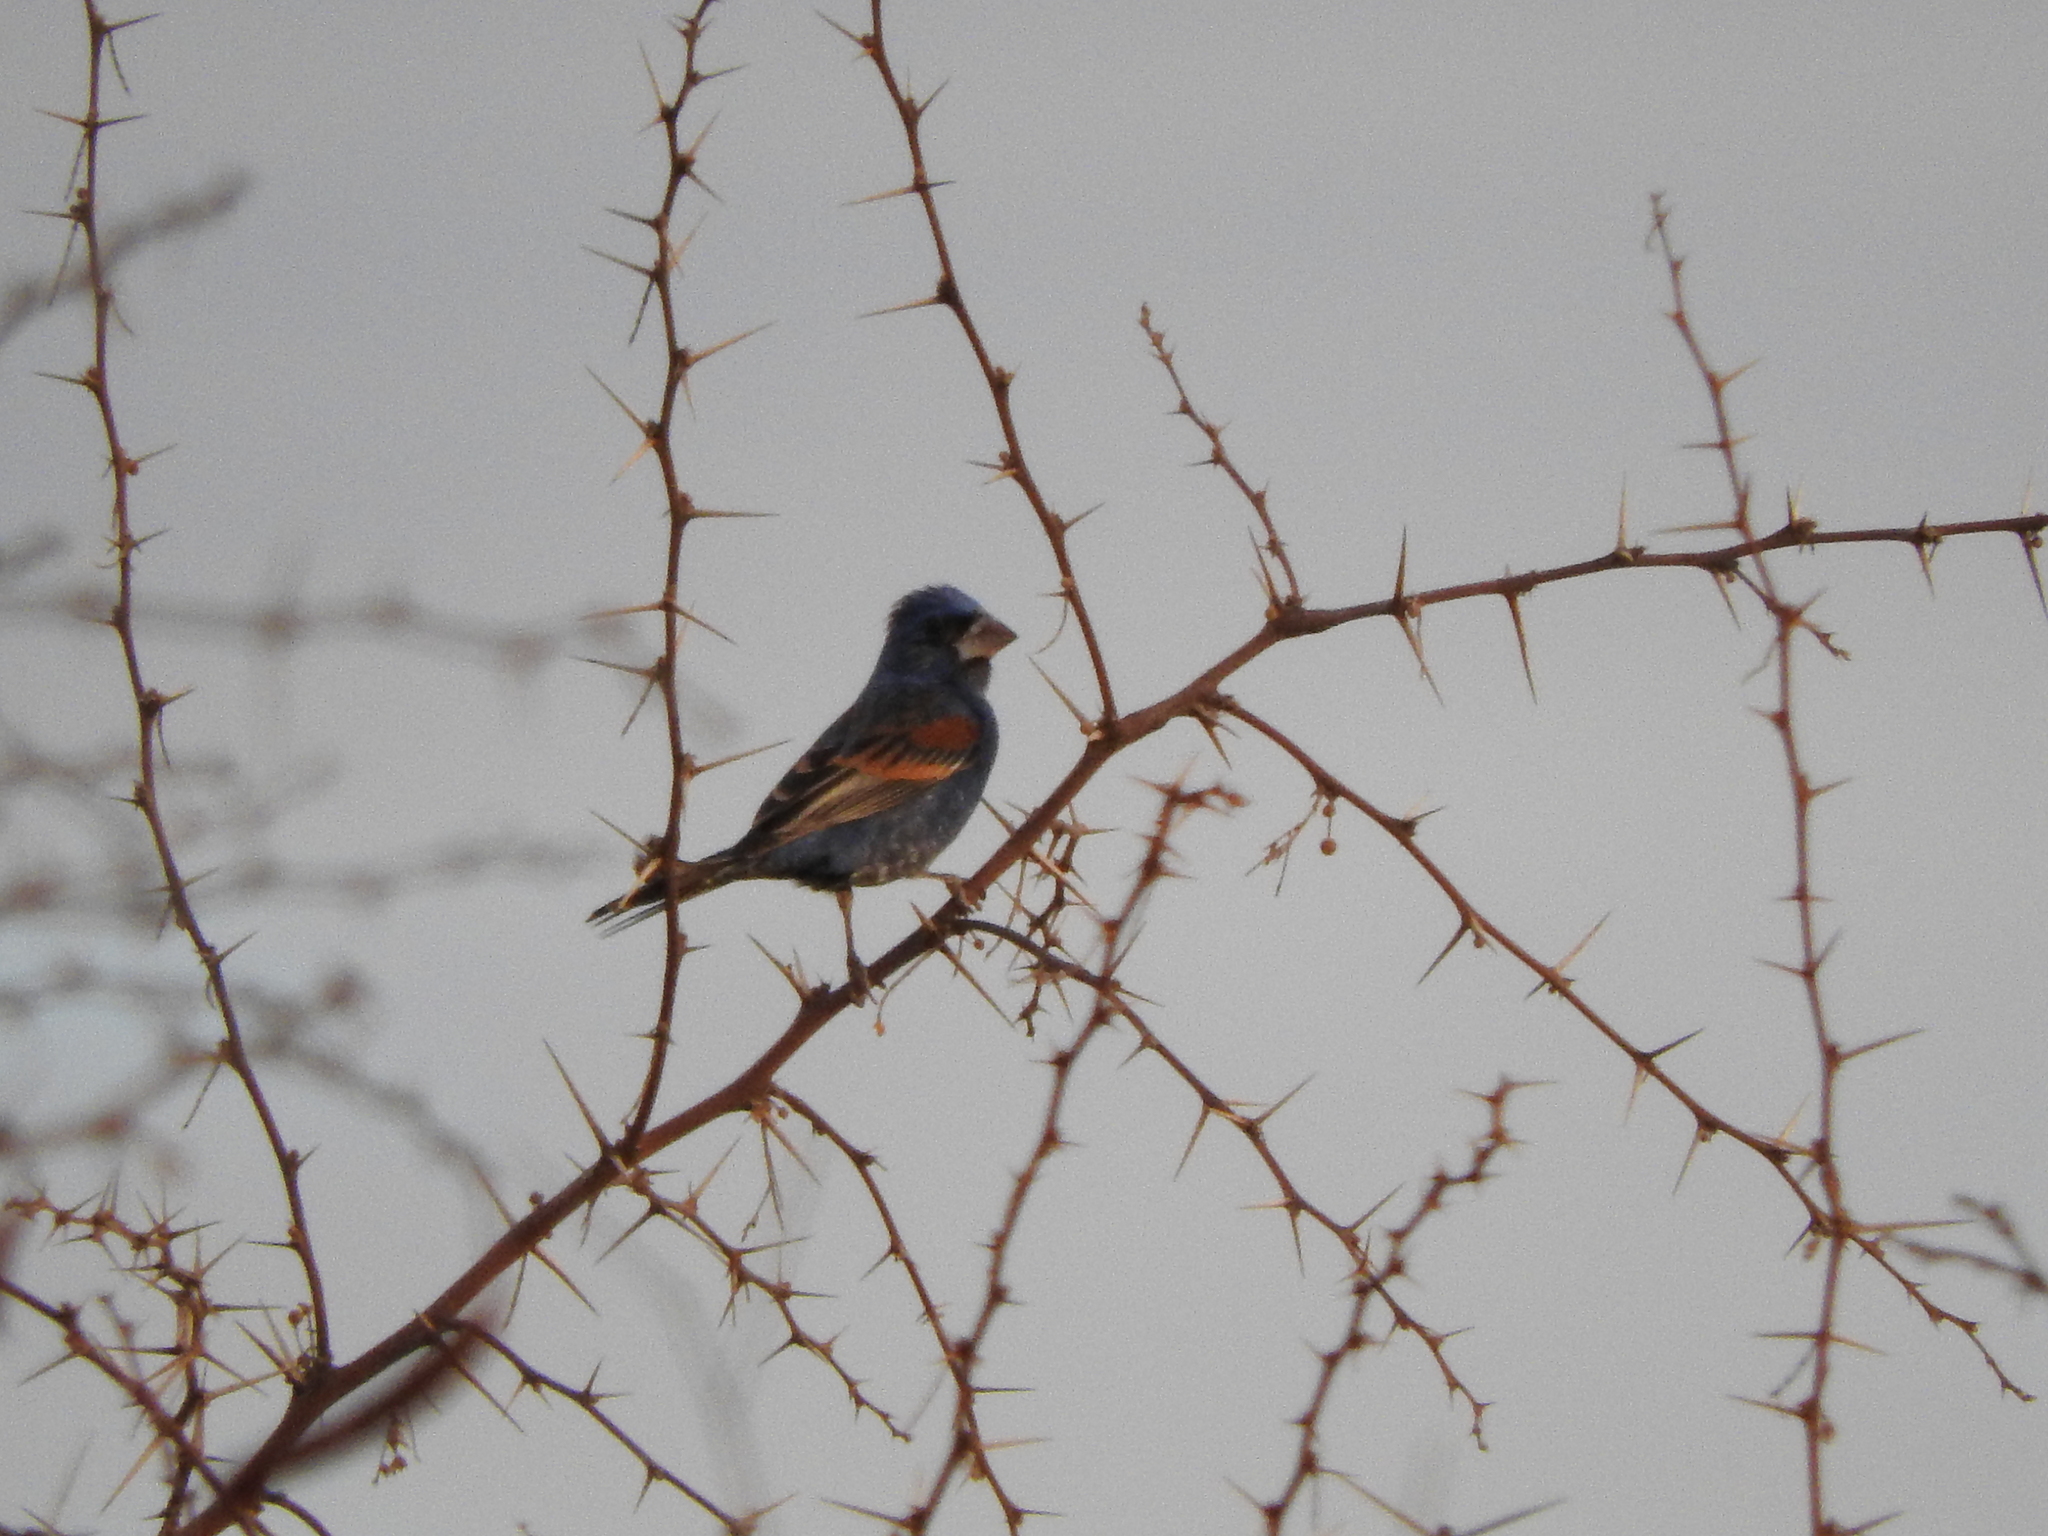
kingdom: Animalia
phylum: Chordata
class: Aves
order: Passeriformes
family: Cardinalidae
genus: Passerina
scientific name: Passerina caerulea
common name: Blue grosbeak
